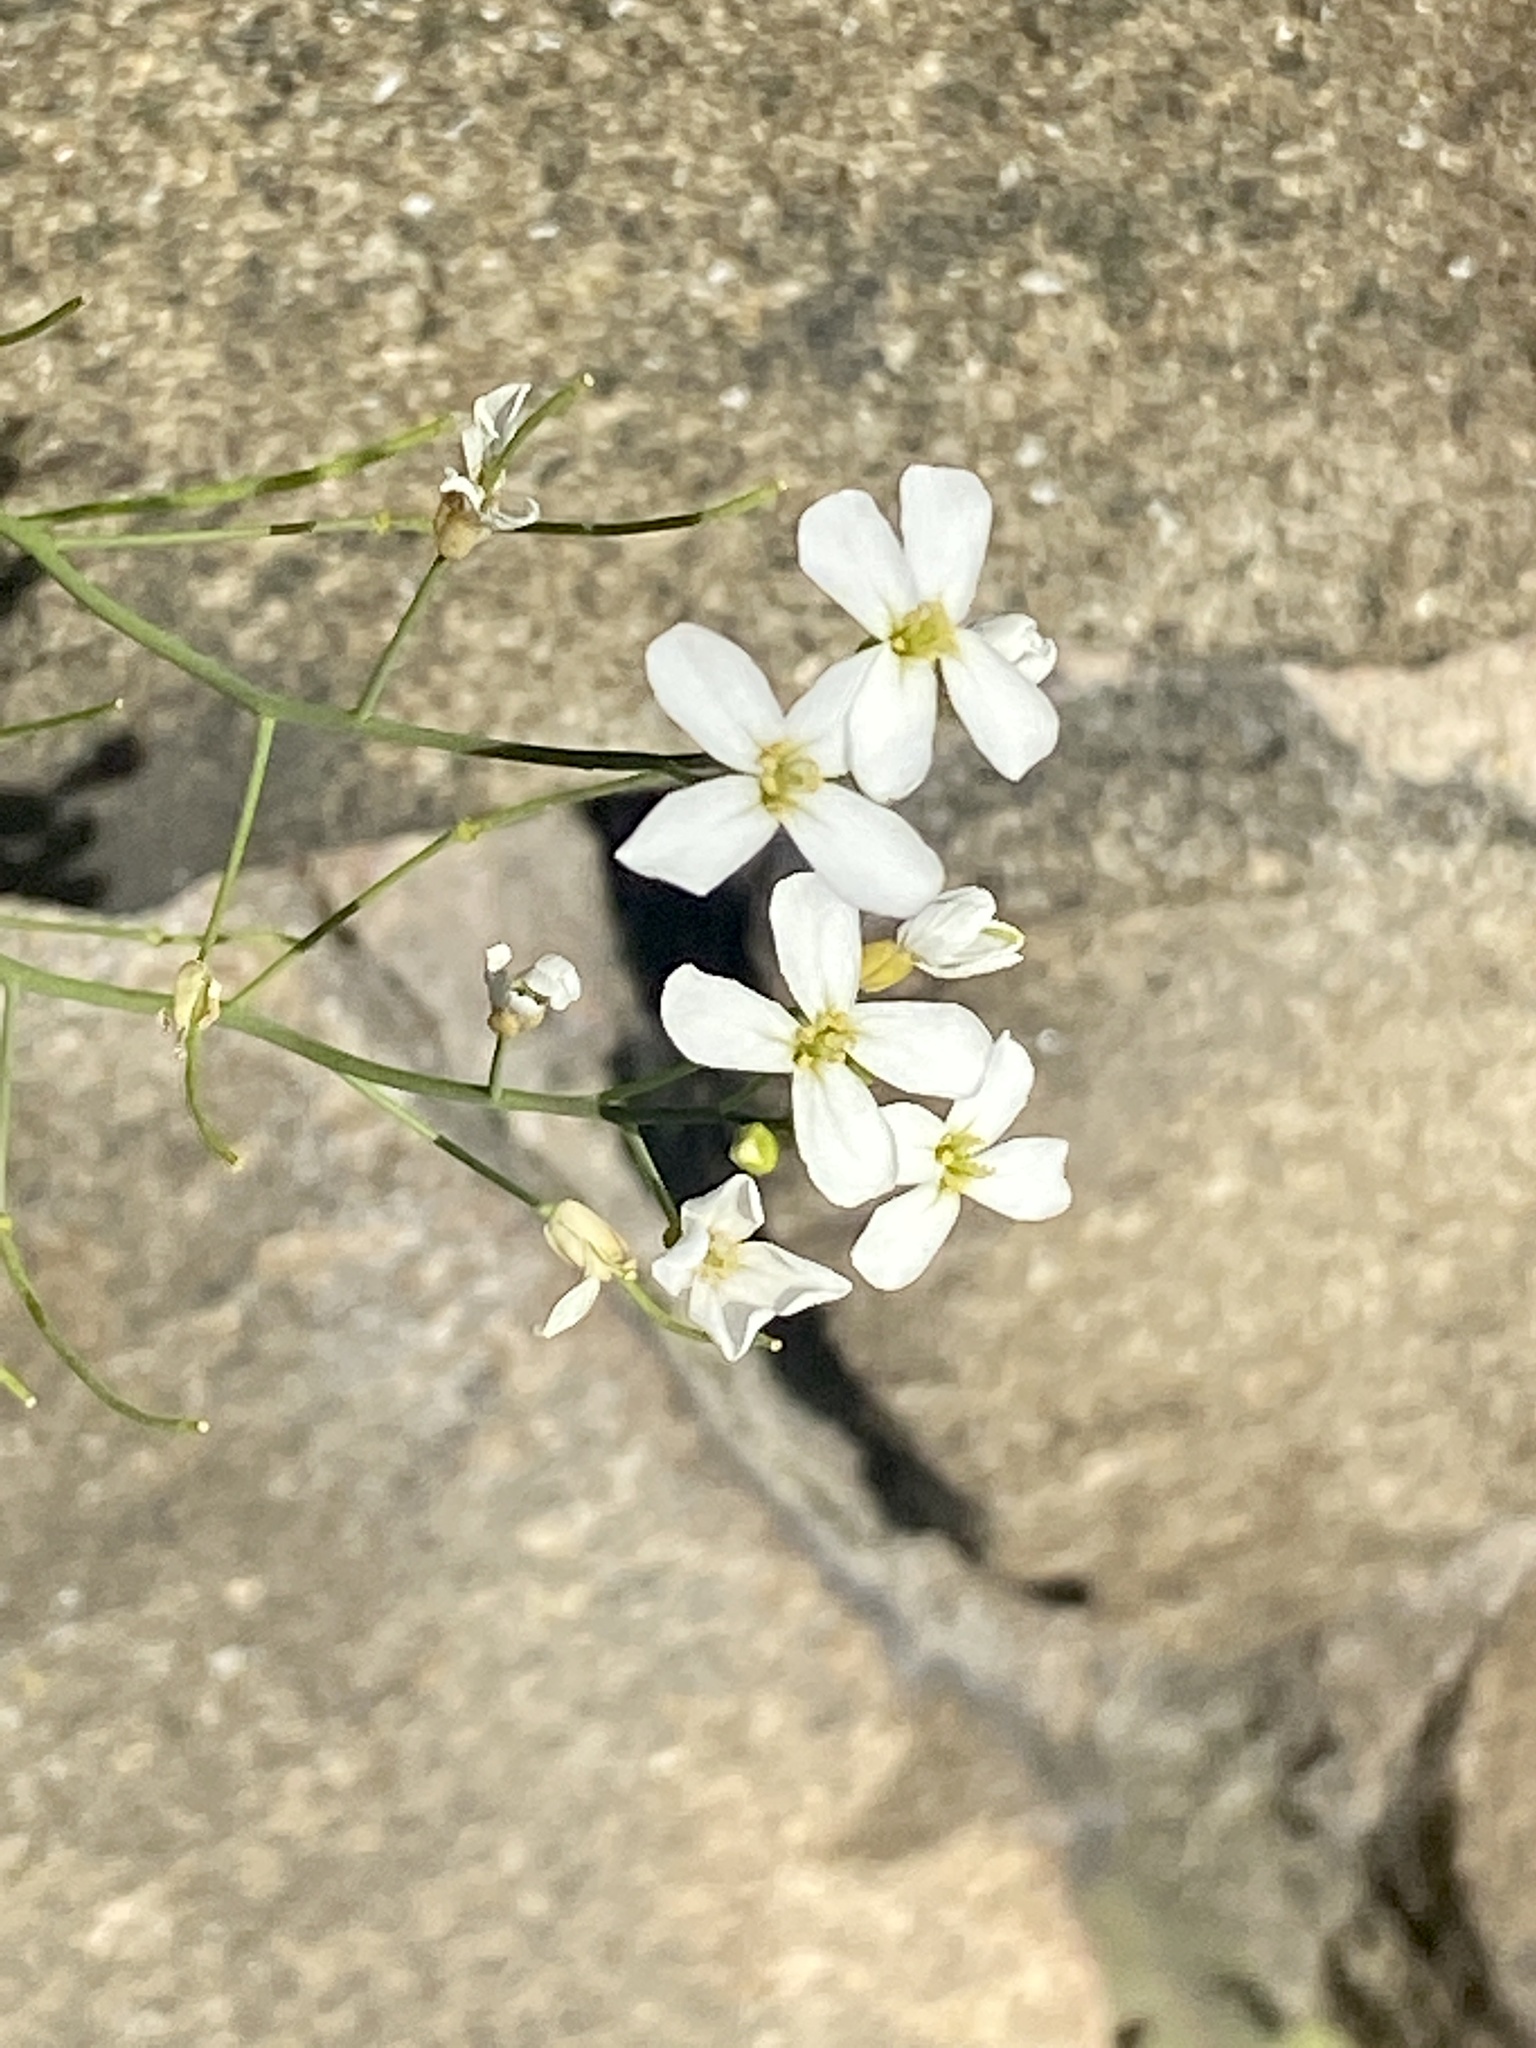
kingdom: Plantae
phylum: Tracheophyta
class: Magnoliopsida
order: Brassicales
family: Brassicaceae
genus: Arabidopsis
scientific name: Arabidopsis lyrata
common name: Lyrate rockcress
